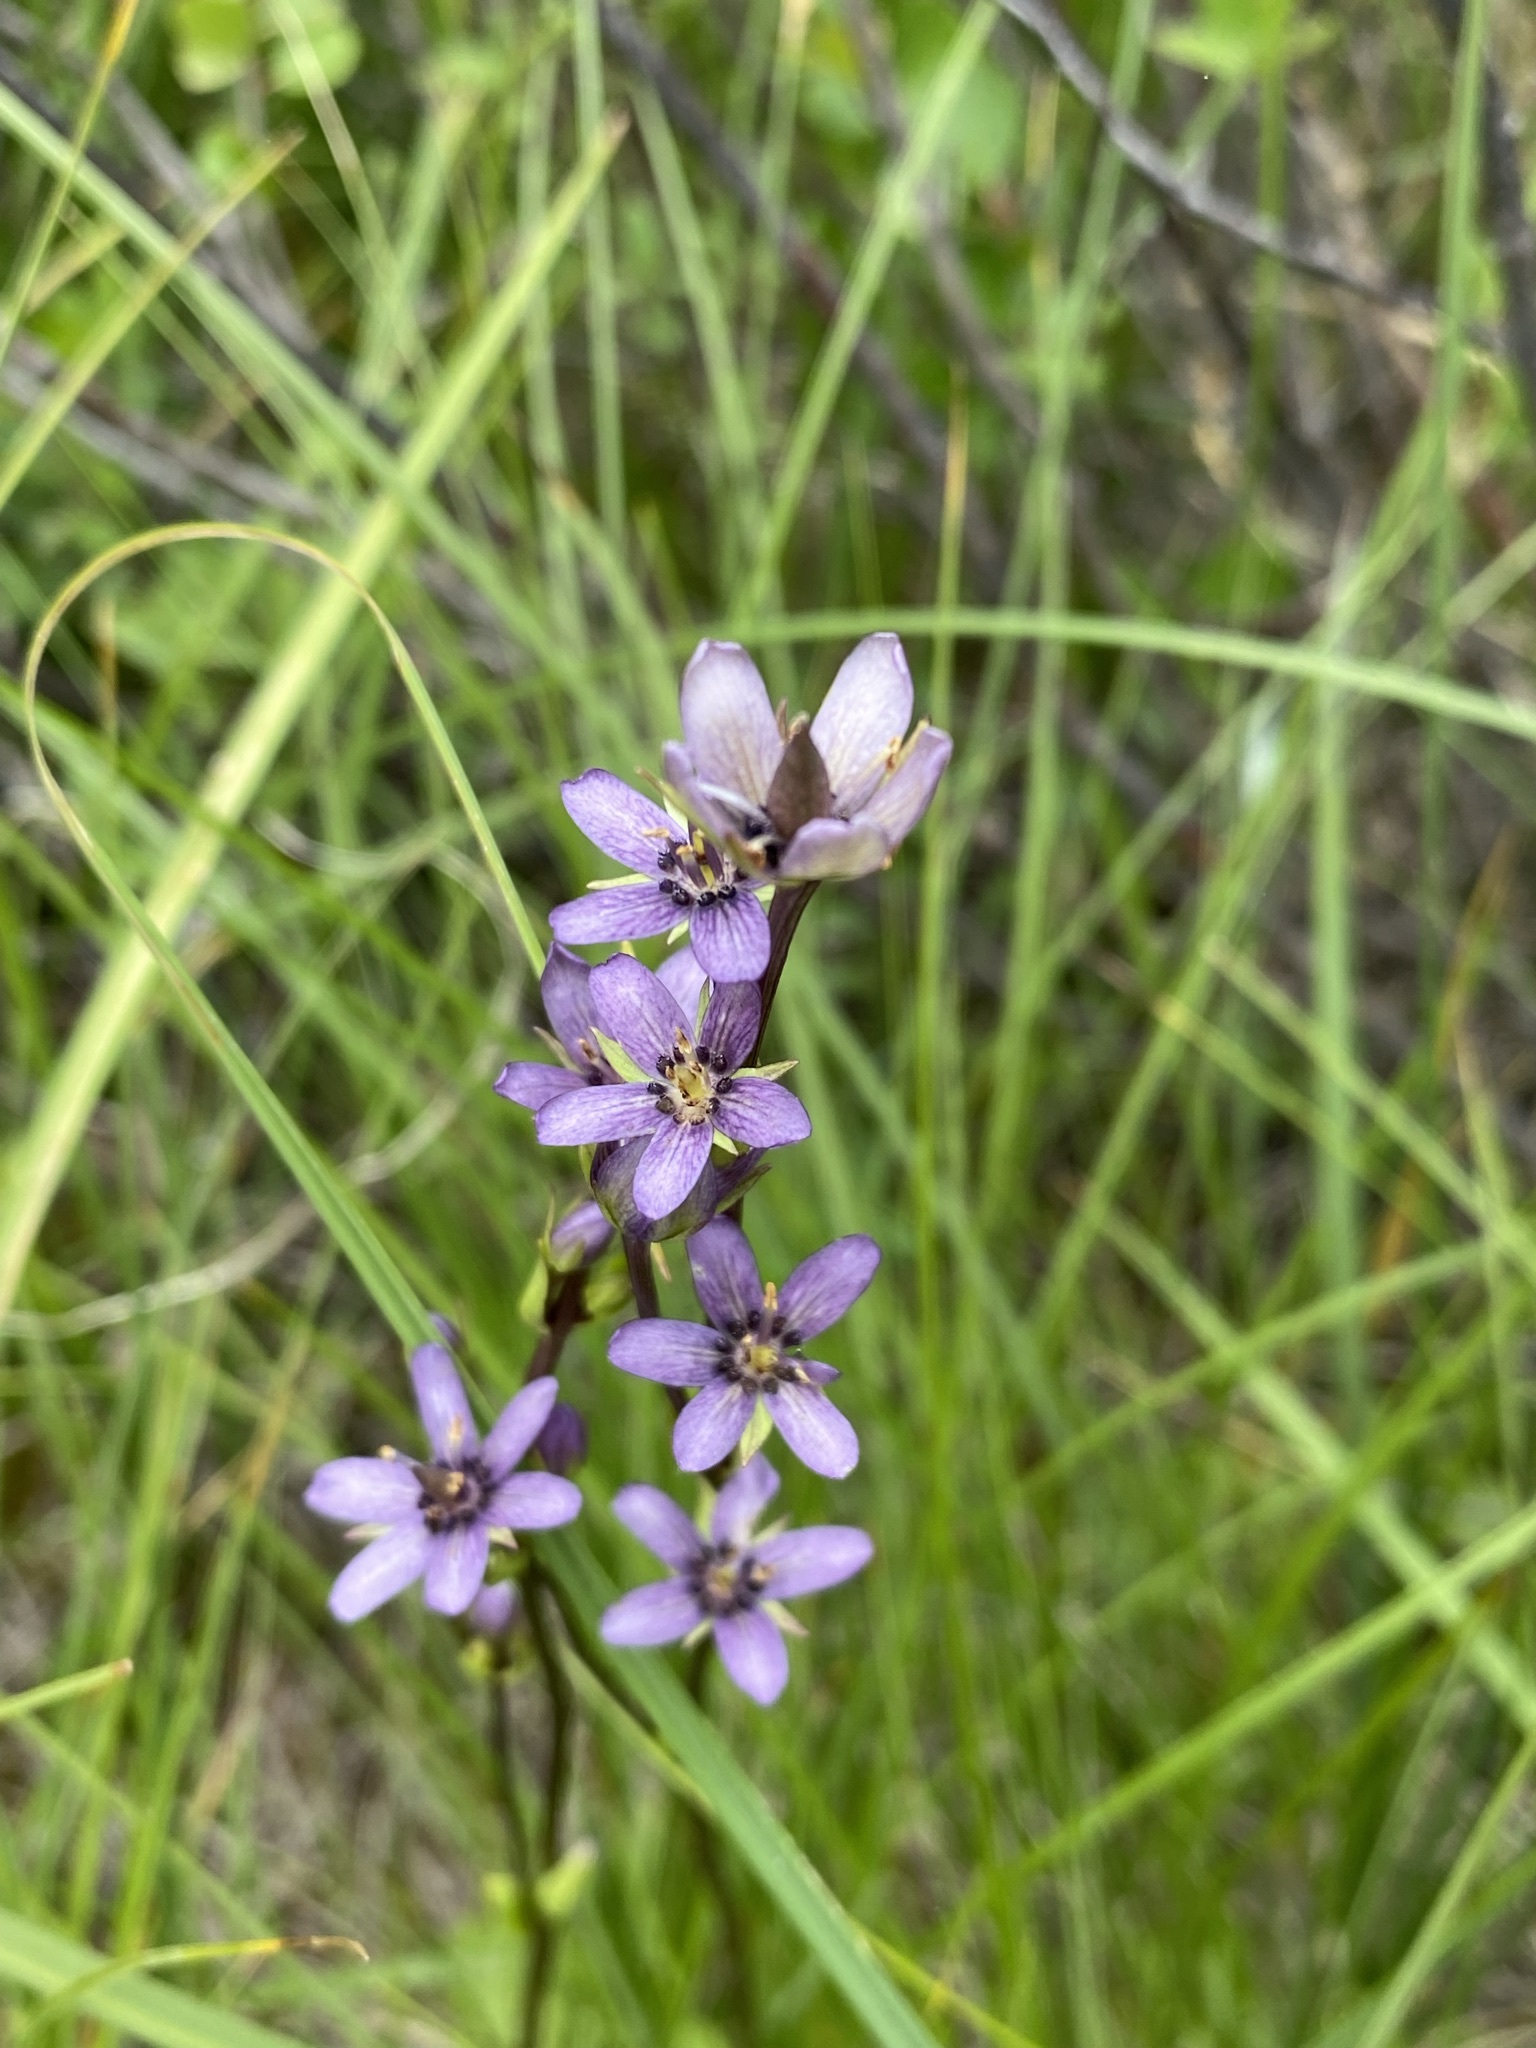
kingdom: Plantae
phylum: Tracheophyta
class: Magnoliopsida
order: Gentianales
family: Gentianaceae
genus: Swertia
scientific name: Swertia perennis
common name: Alpine bog swertia
